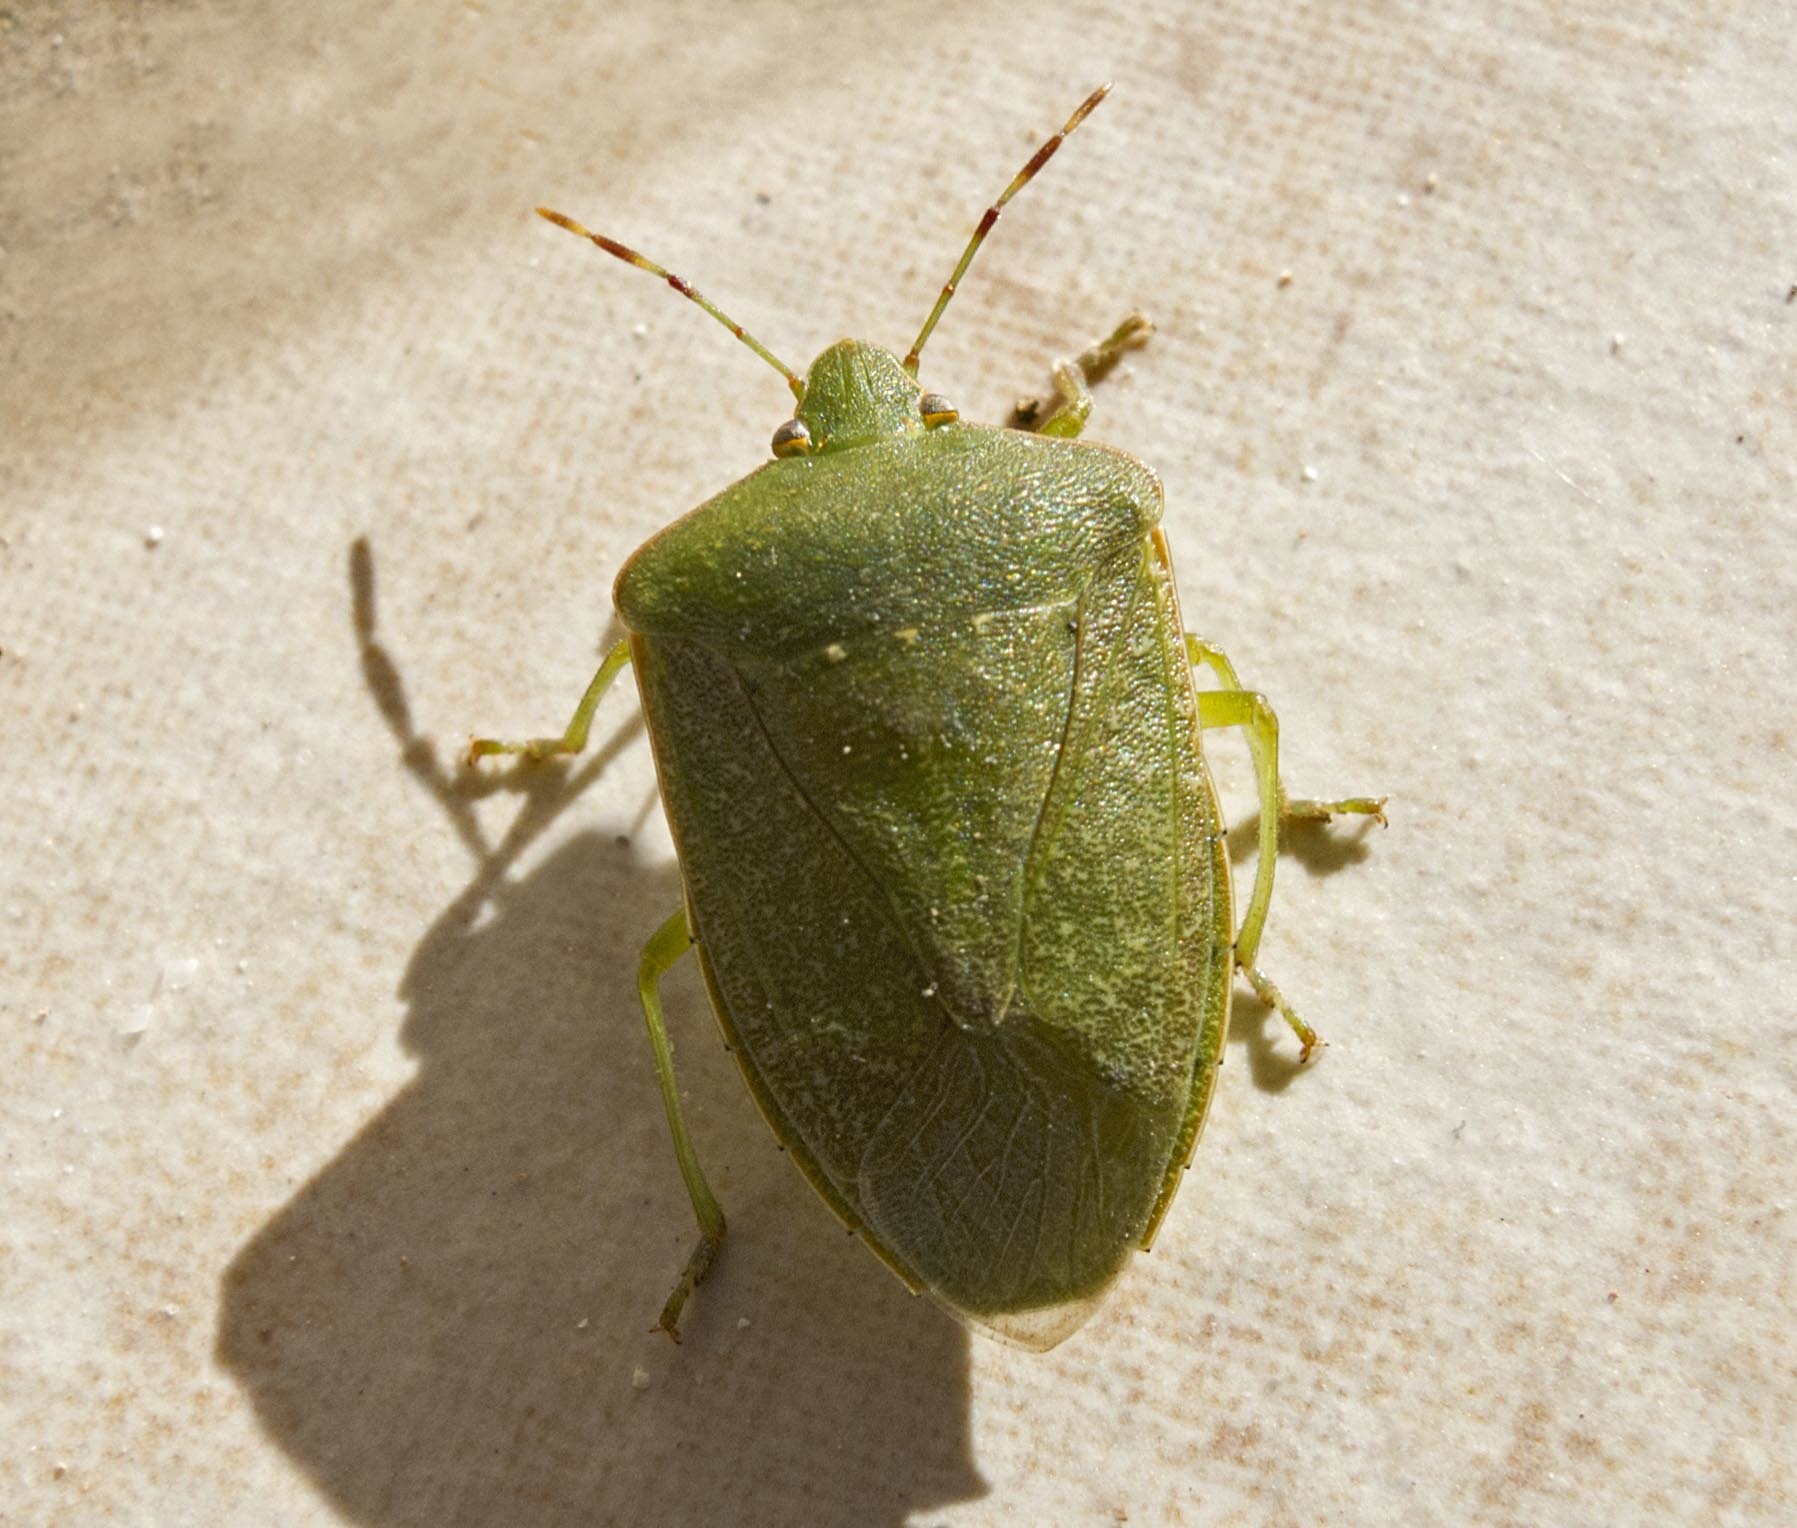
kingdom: Animalia
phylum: Arthropoda
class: Insecta
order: Hemiptera
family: Pentatomidae
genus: Nezara
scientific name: Nezara viridula
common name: Southern green stink bug
